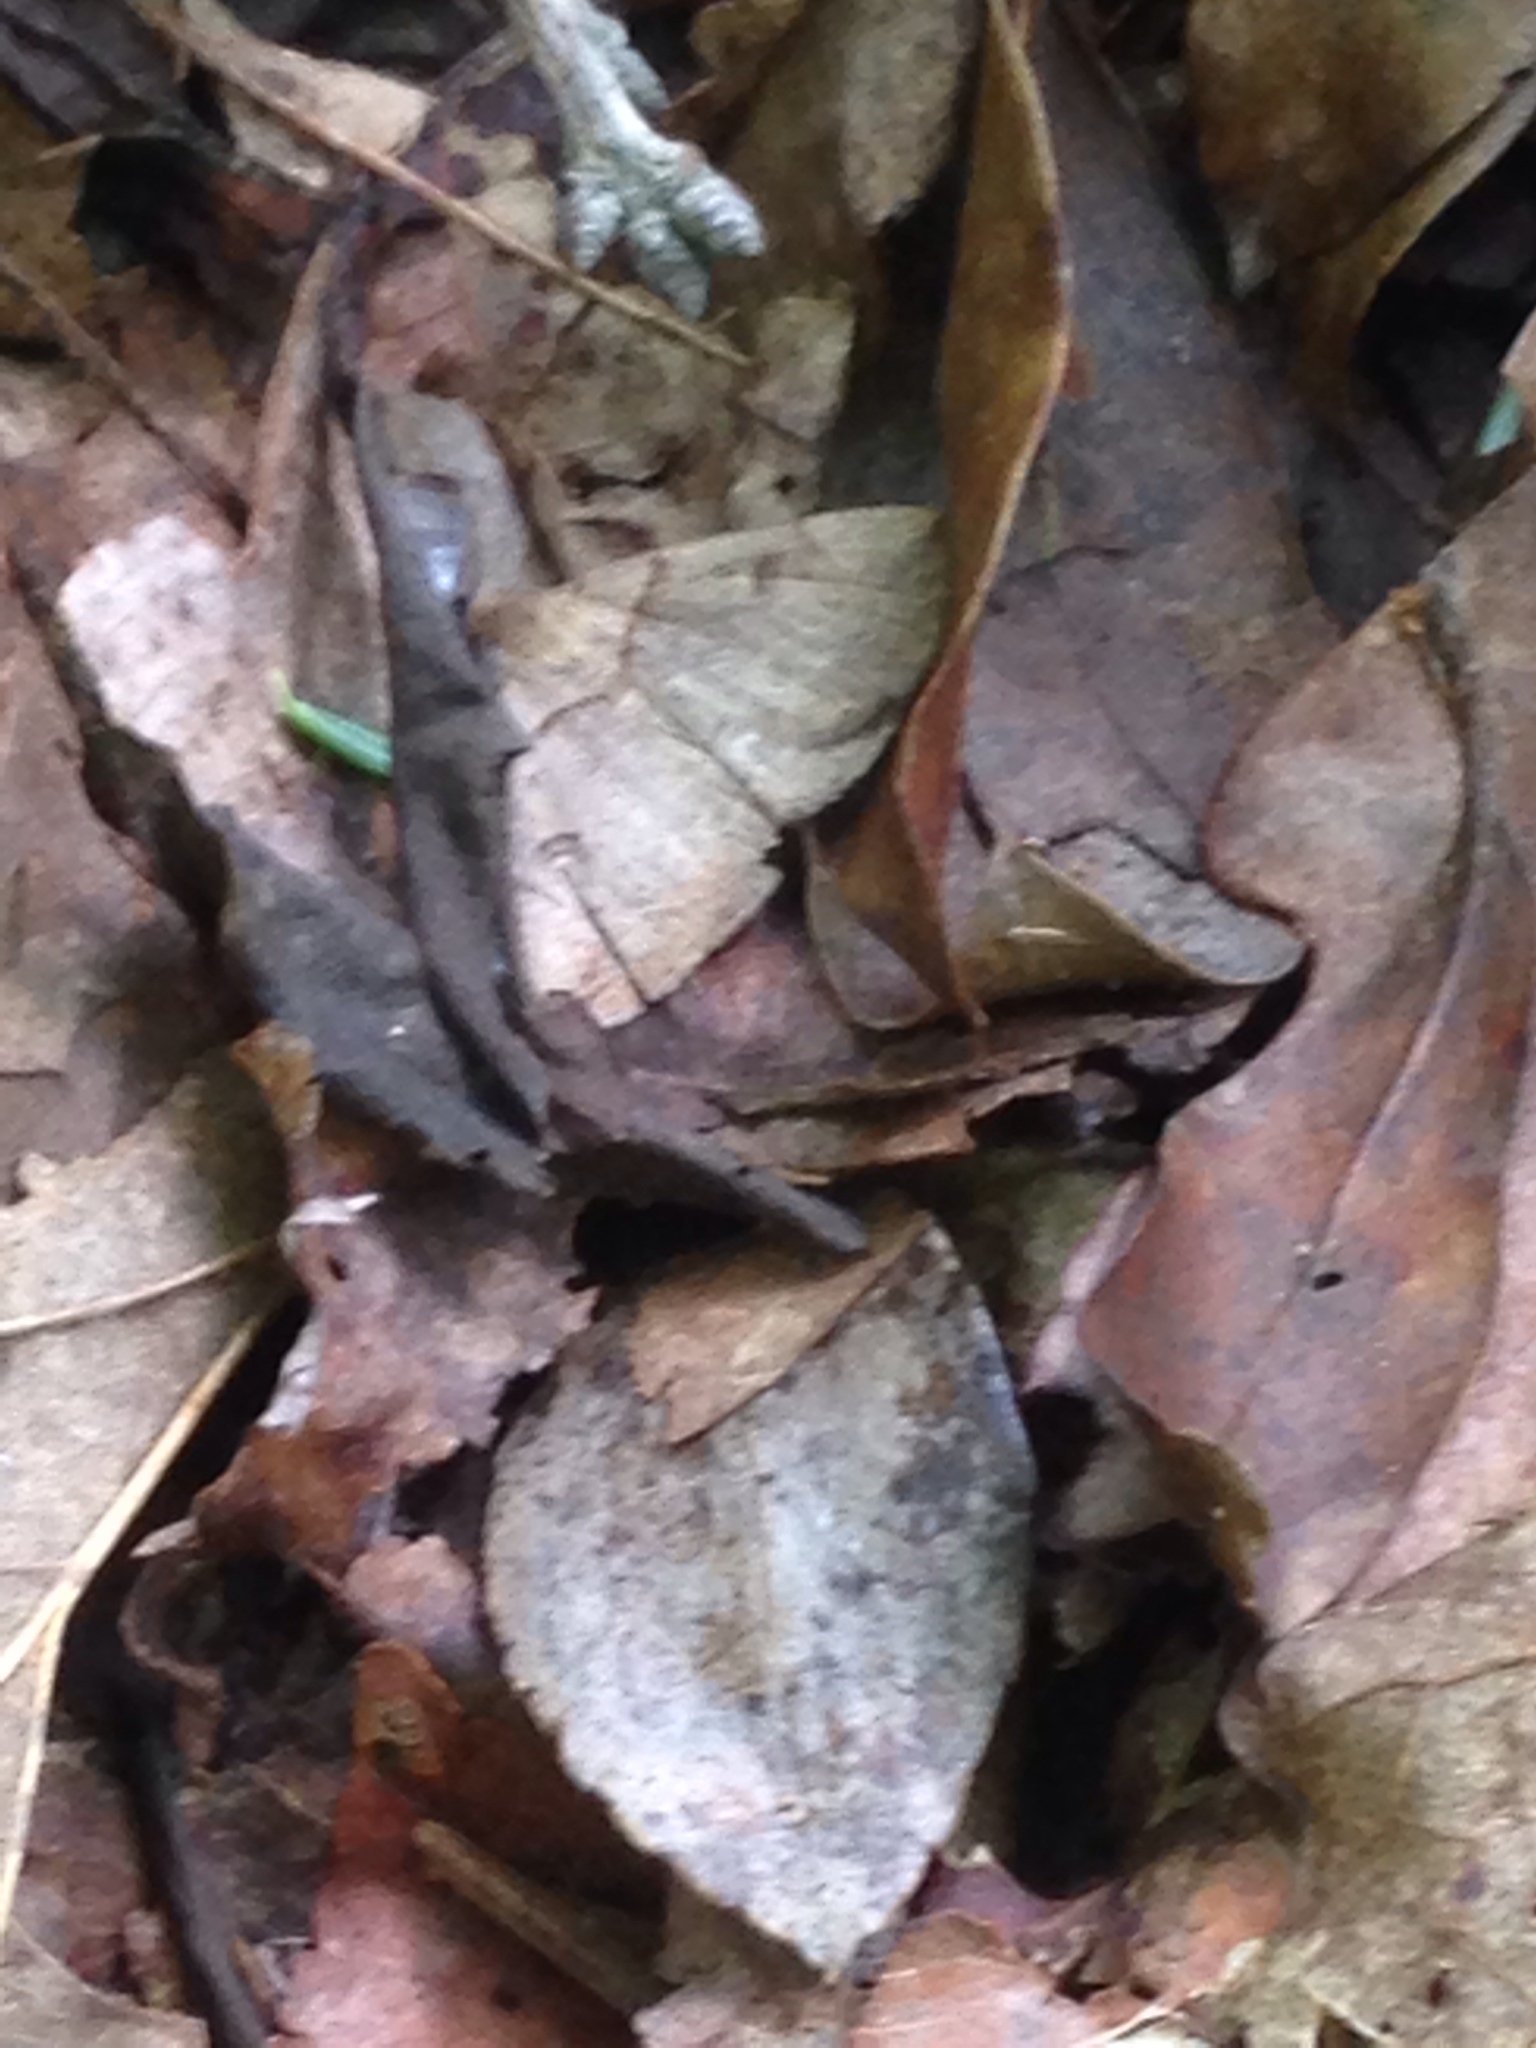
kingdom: Animalia
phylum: Arthropoda
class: Insecta
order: Lepidoptera
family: Erebidae
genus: Zanclognatha
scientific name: Zanclognatha laevigata
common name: Variable fan-foot
